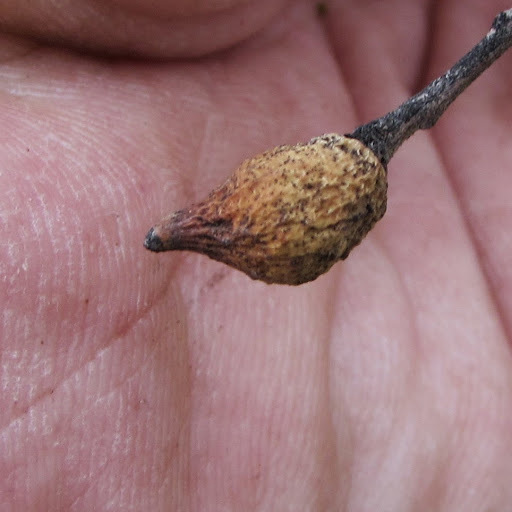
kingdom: Animalia
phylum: Arthropoda
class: Insecta
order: Hymenoptera
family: Cynipidae
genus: Heteroecus
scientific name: Heteroecus pacificus
